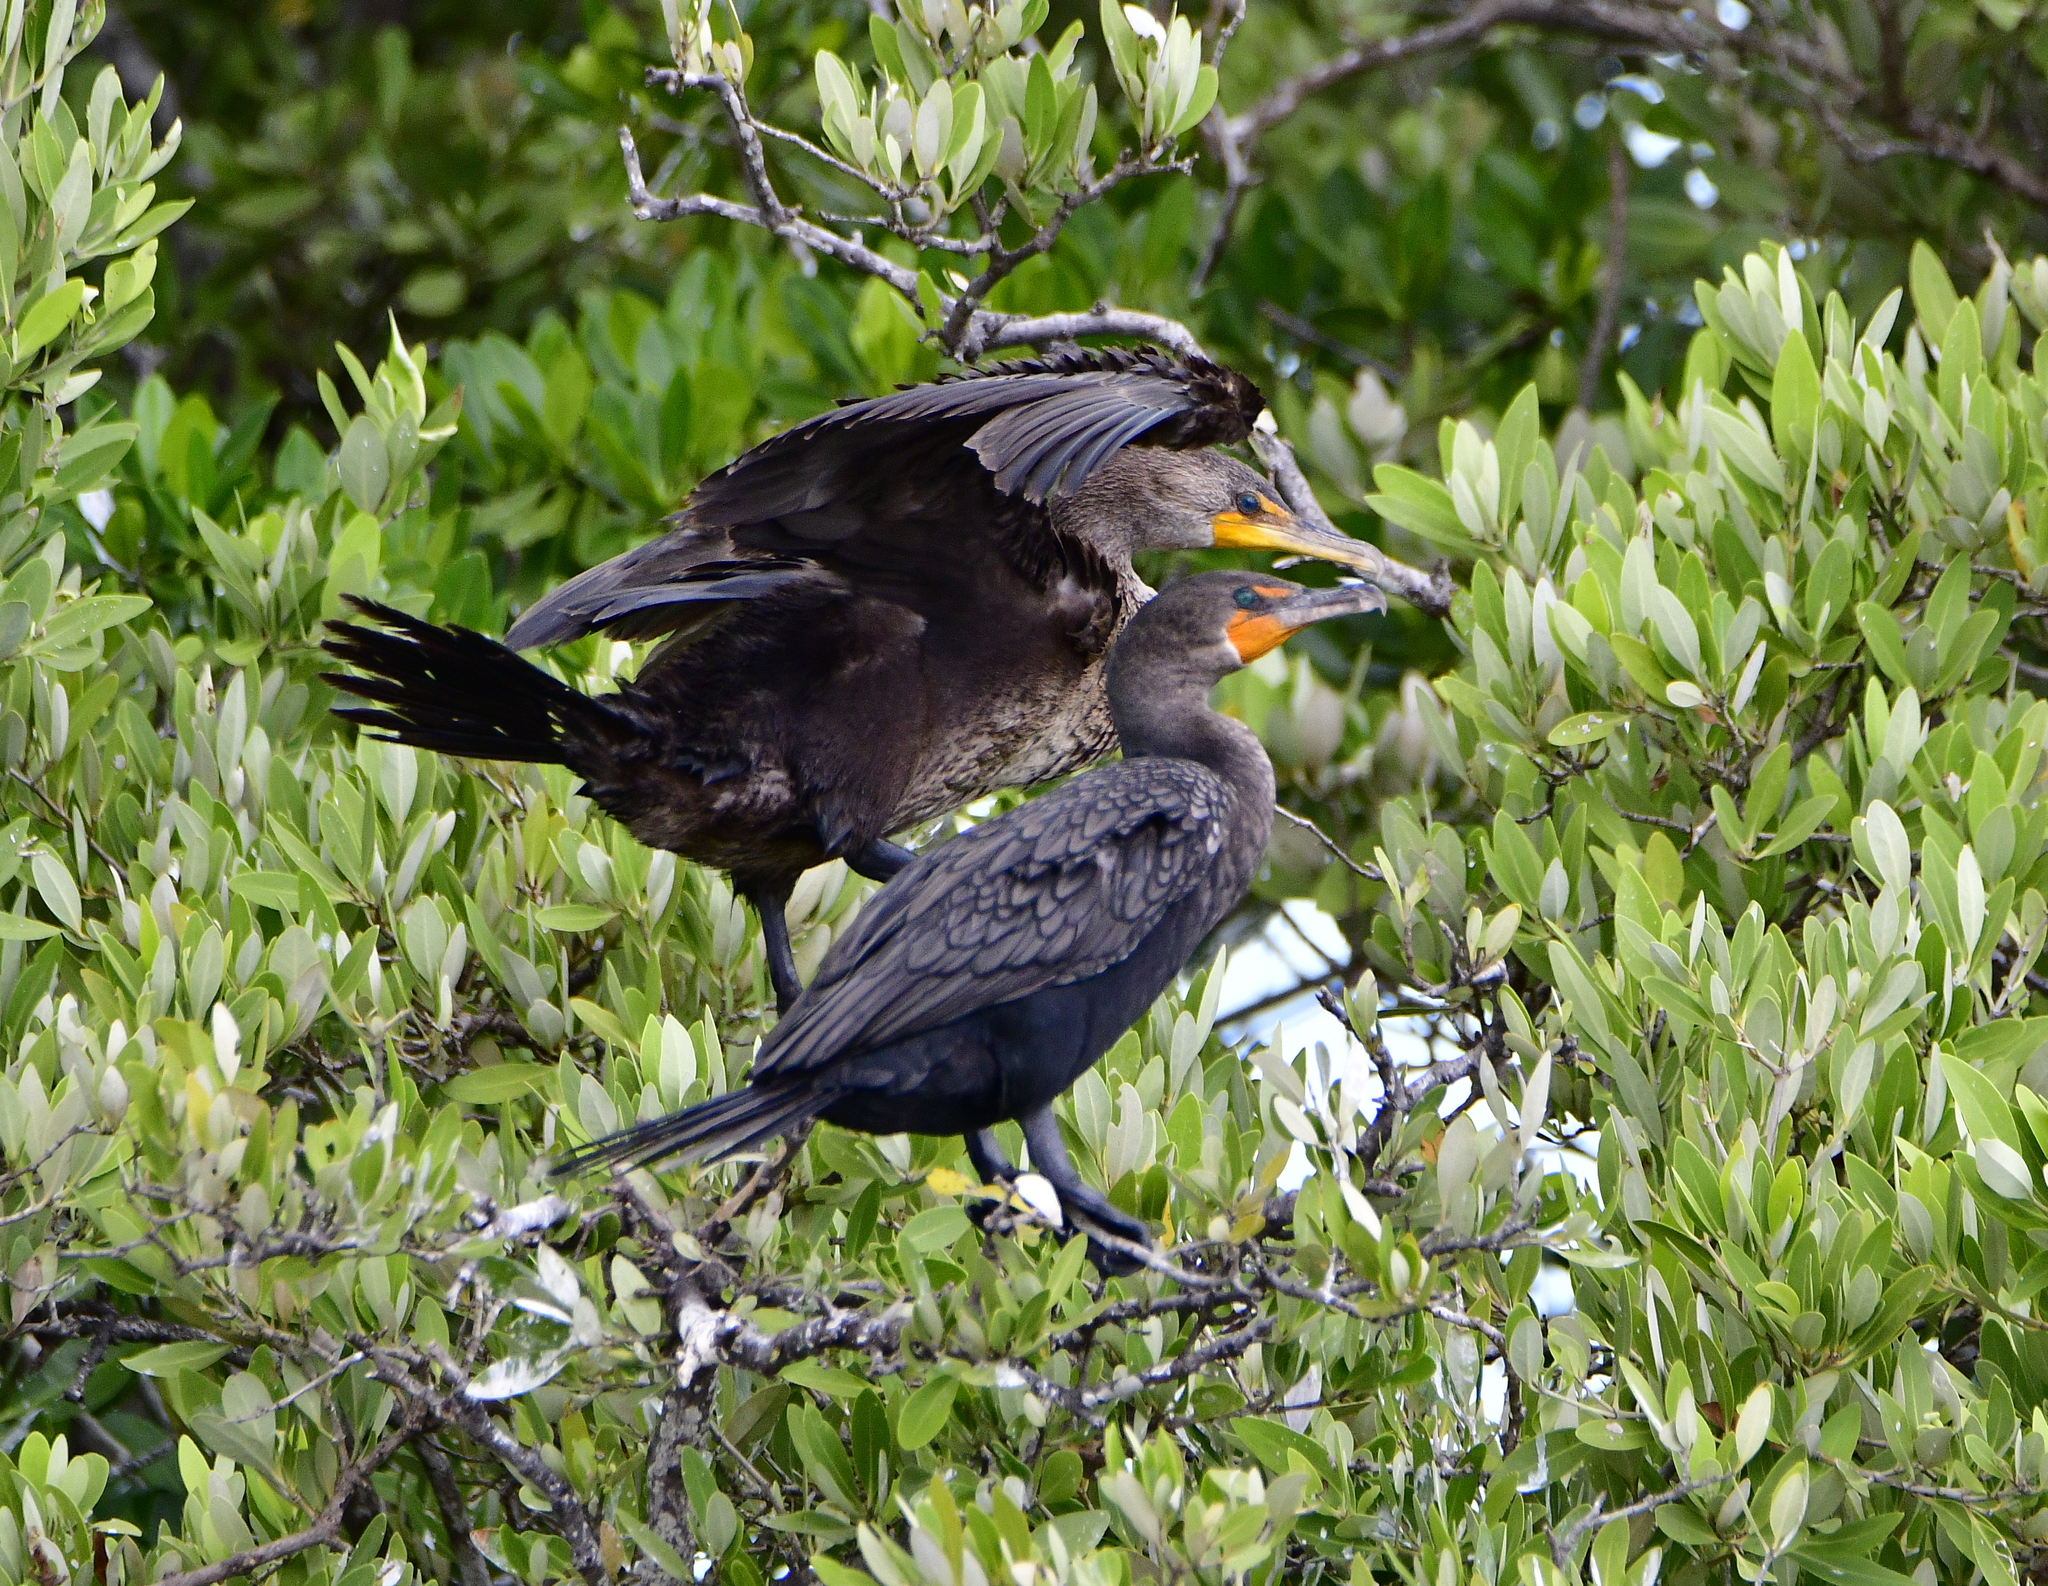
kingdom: Animalia
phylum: Chordata
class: Aves
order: Suliformes
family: Phalacrocoracidae
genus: Phalacrocorax
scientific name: Phalacrocorax brasilianus
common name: Neotropic cormorant
